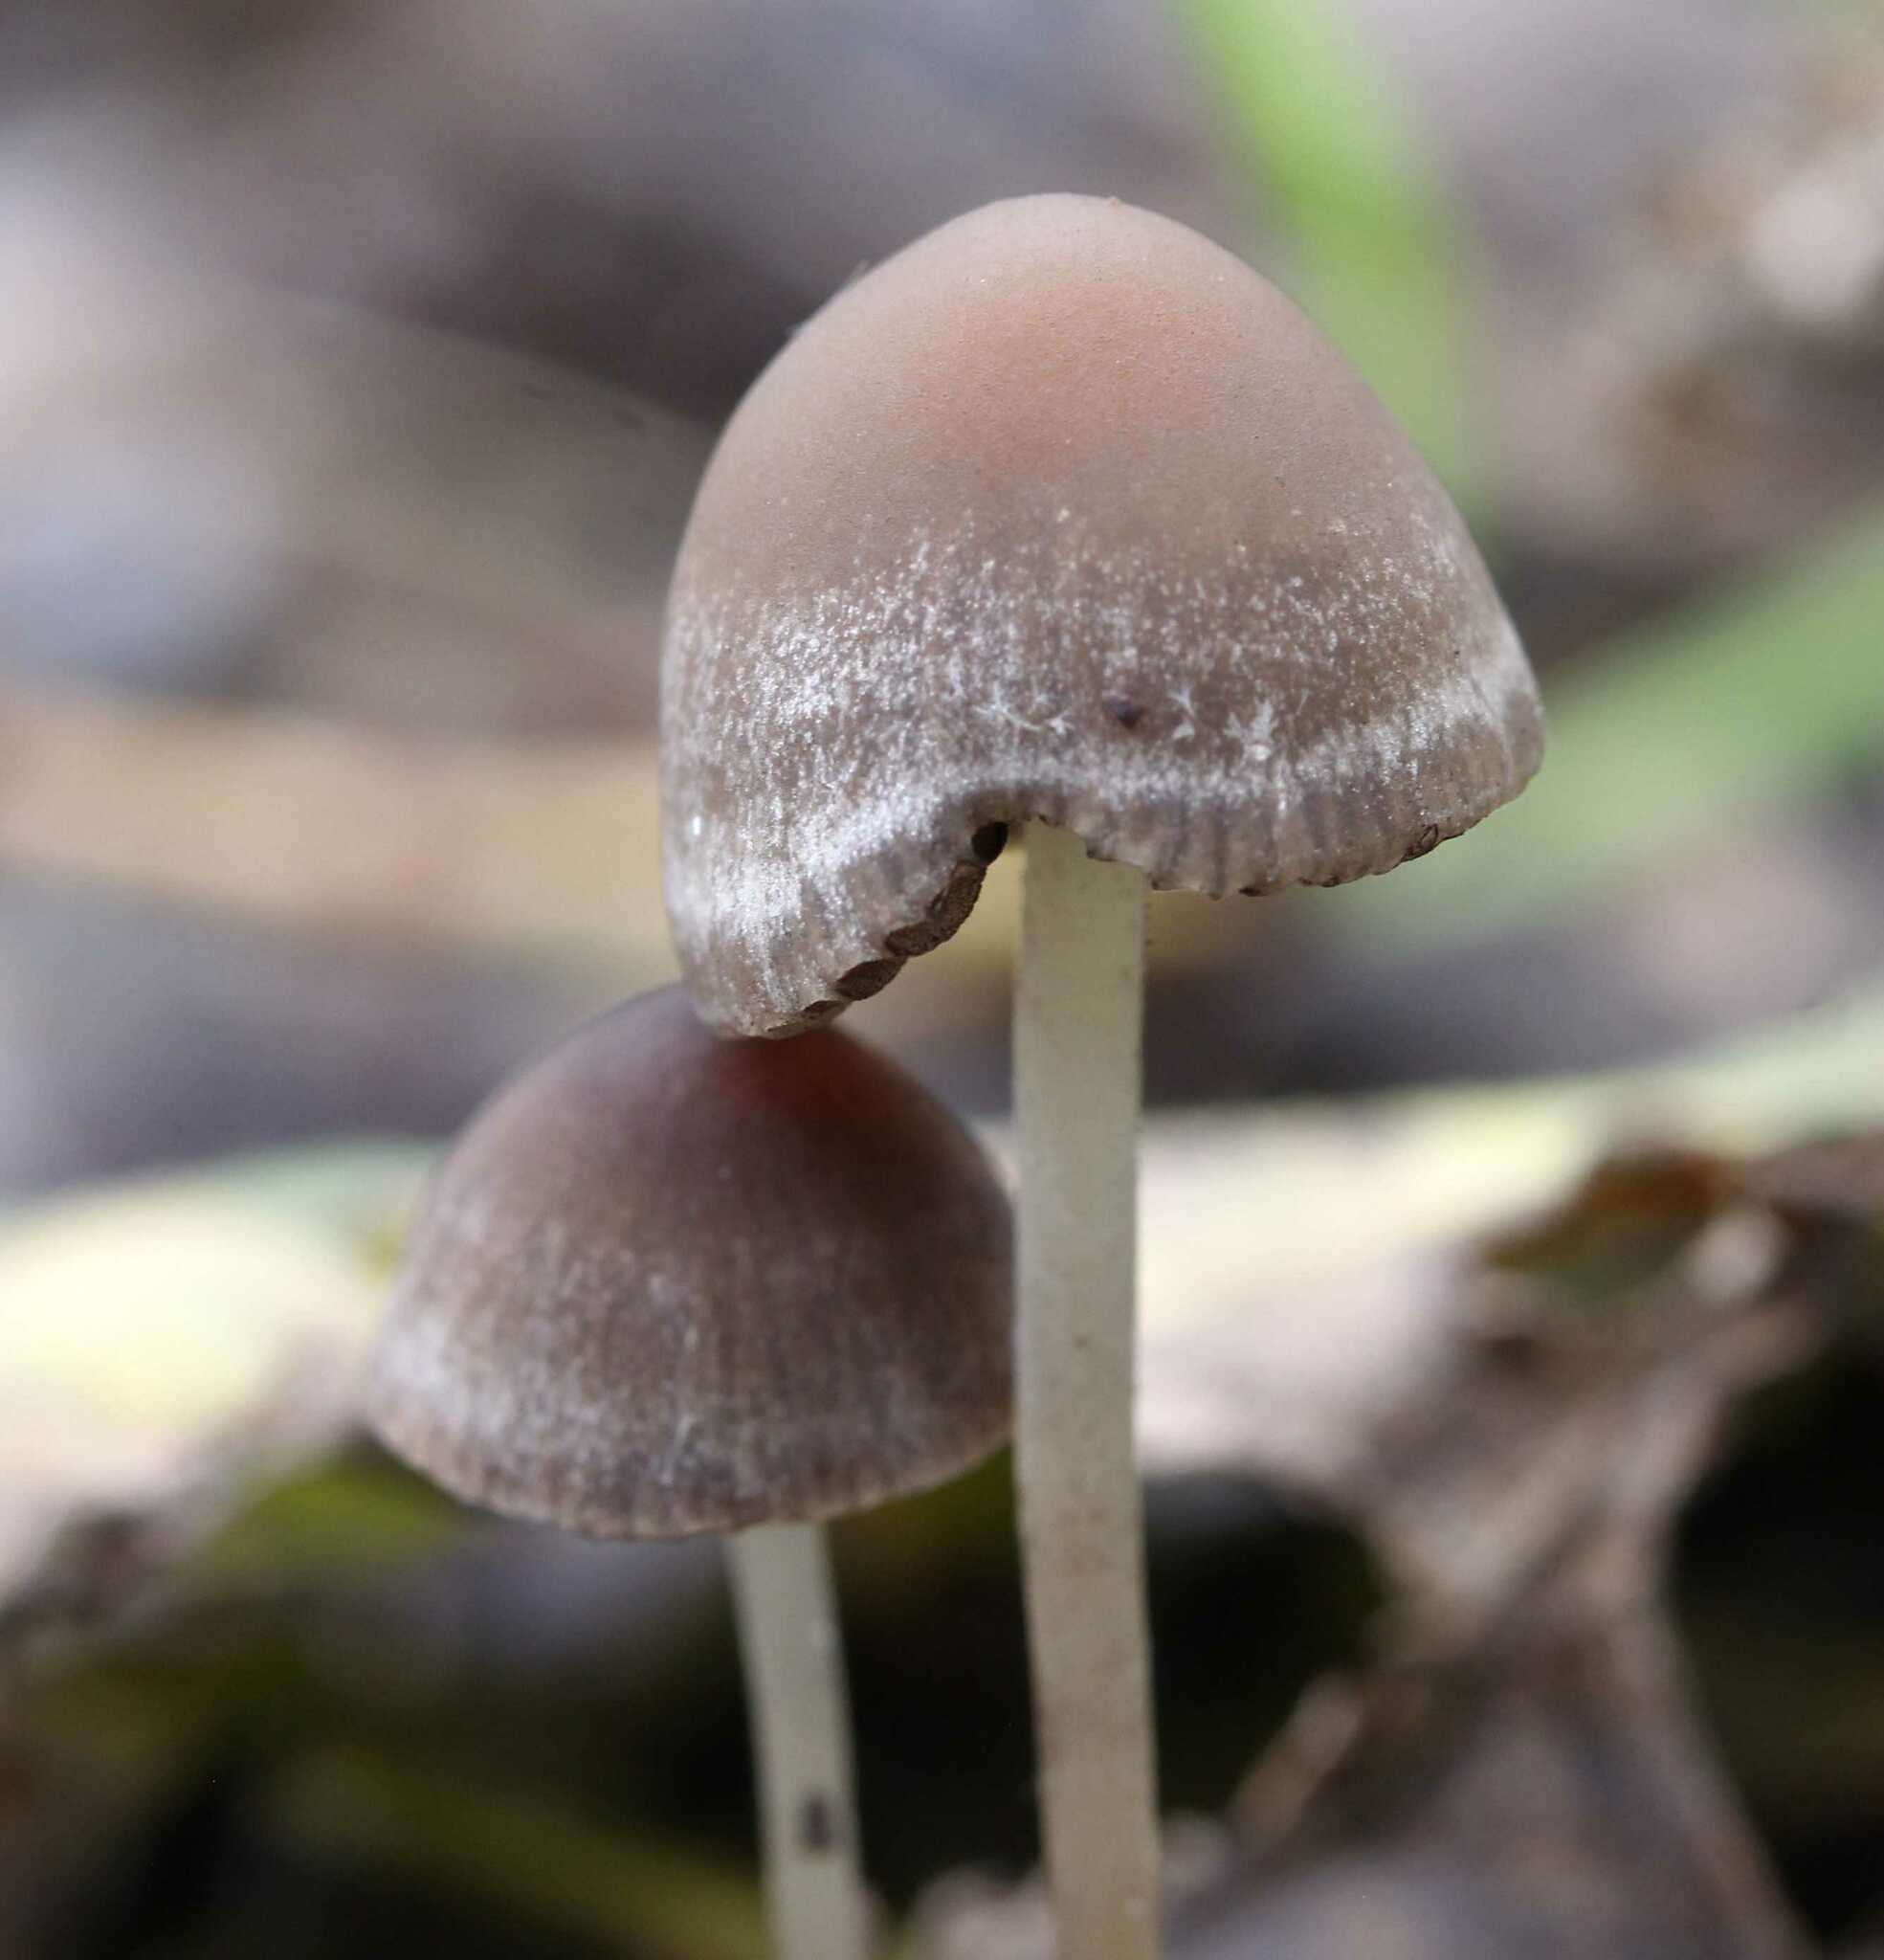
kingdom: Fungi
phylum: Basidiomycota
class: Agaricomycetes
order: Agaricales
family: Psathyrellaceae
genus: Psathyrella
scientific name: Psathyrella
